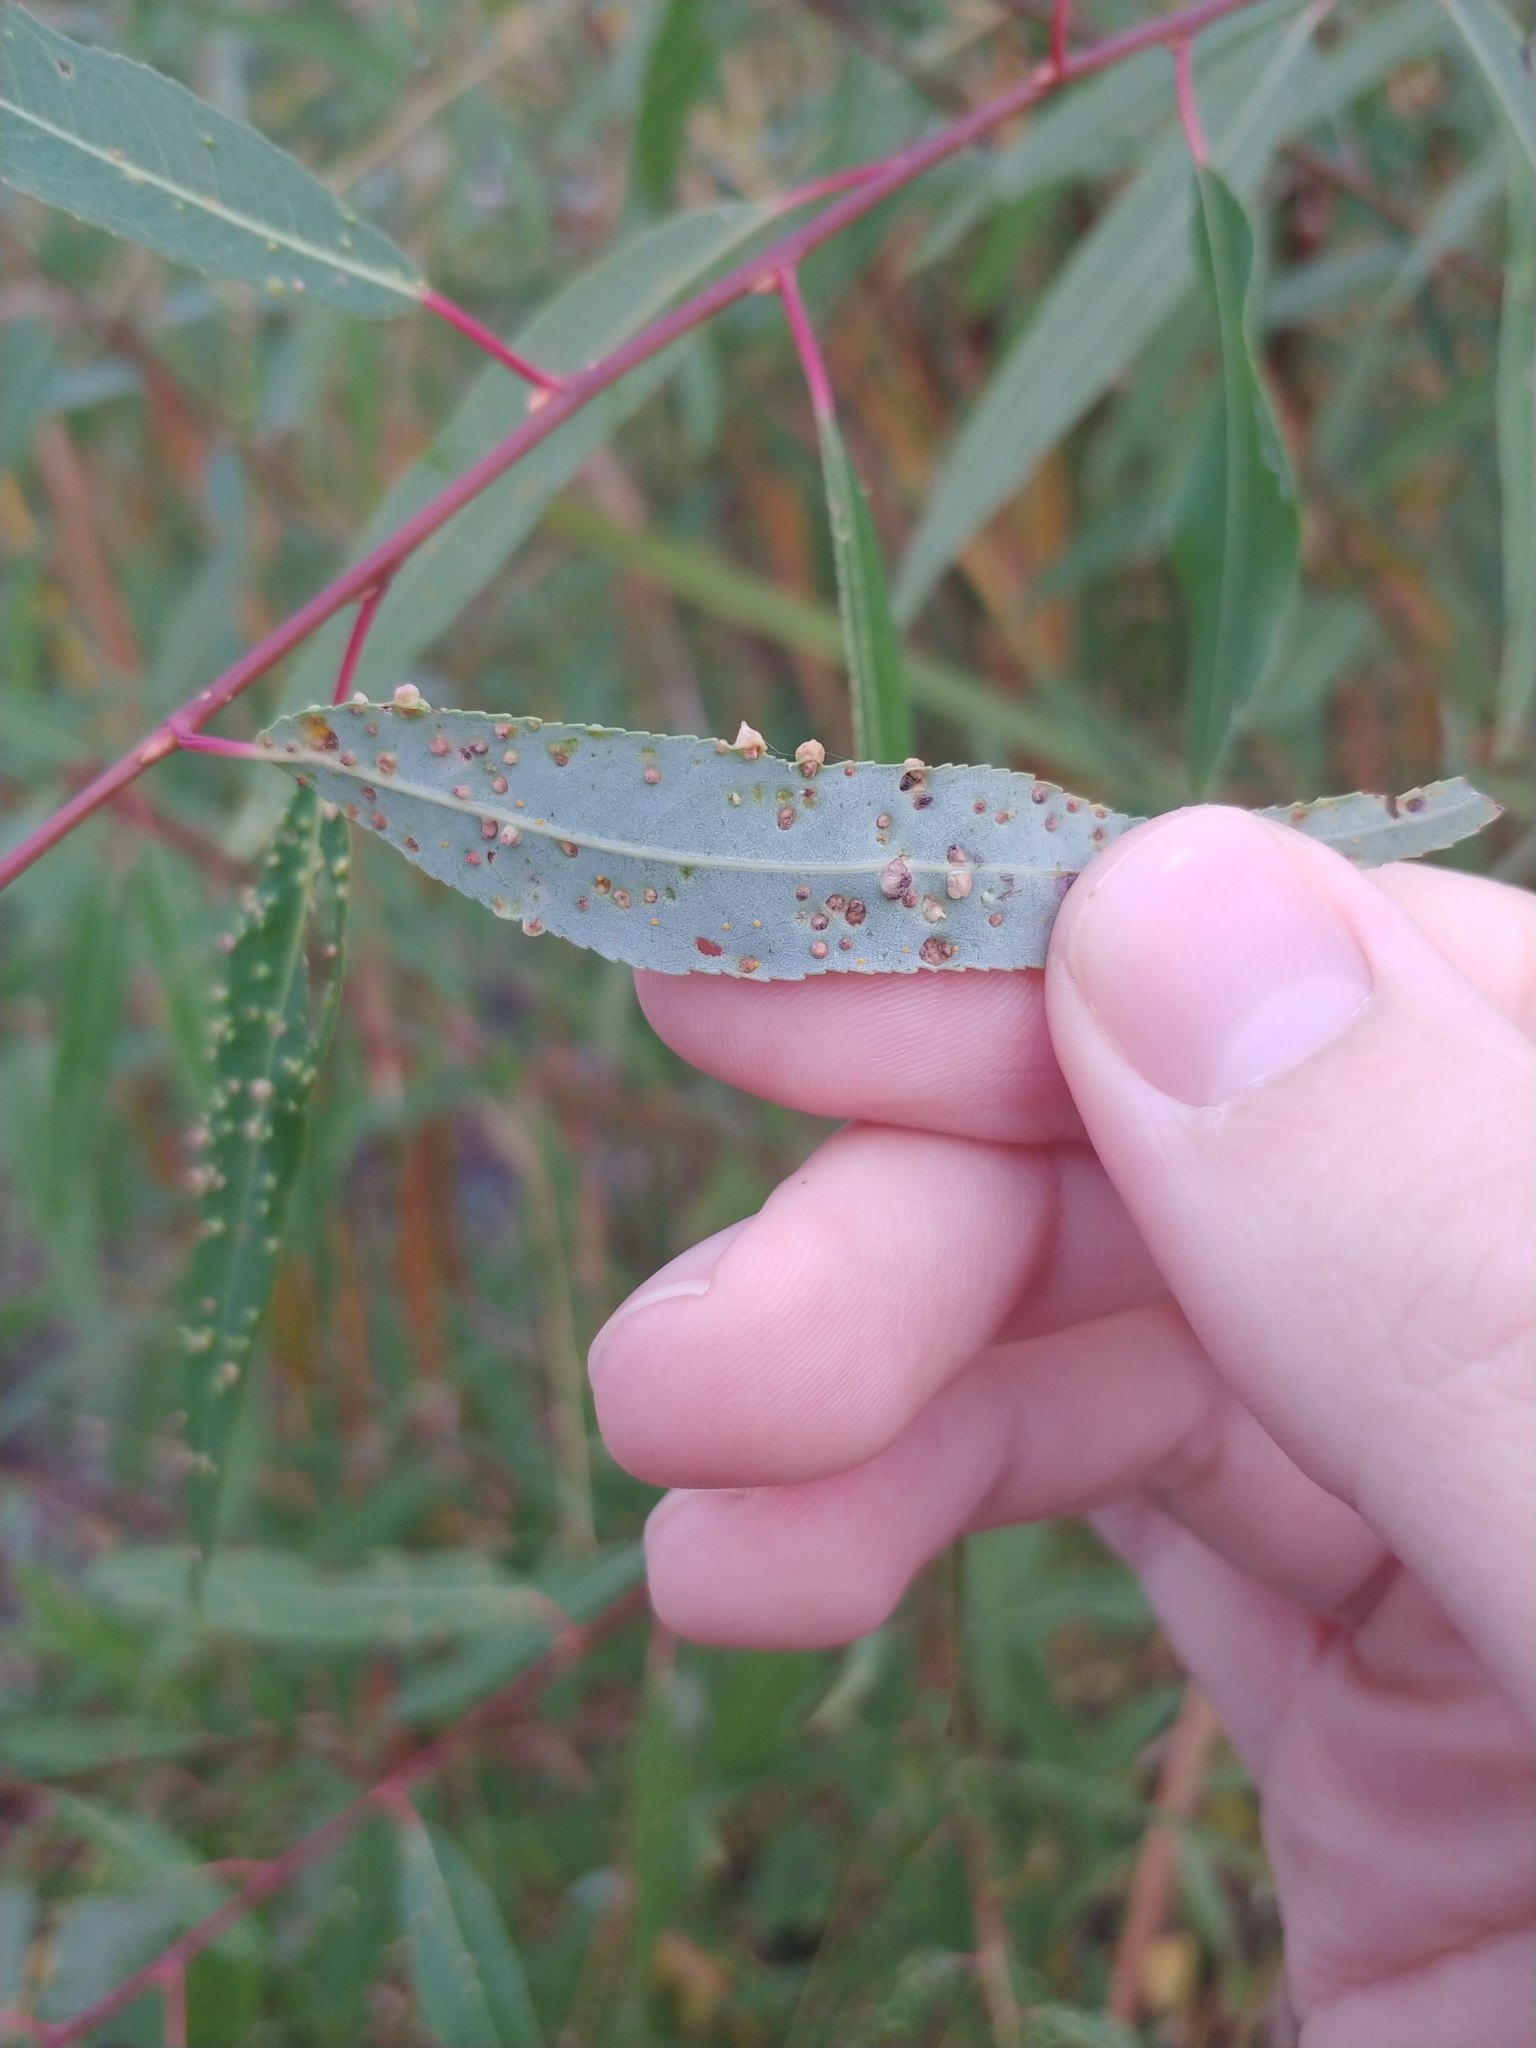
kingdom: Animalia
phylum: Arthropoda
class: Arachnida
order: Trombidiformes
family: Eriophyidae
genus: Aculus
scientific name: Aculus tetanothrix
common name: Willow bead gall mite
